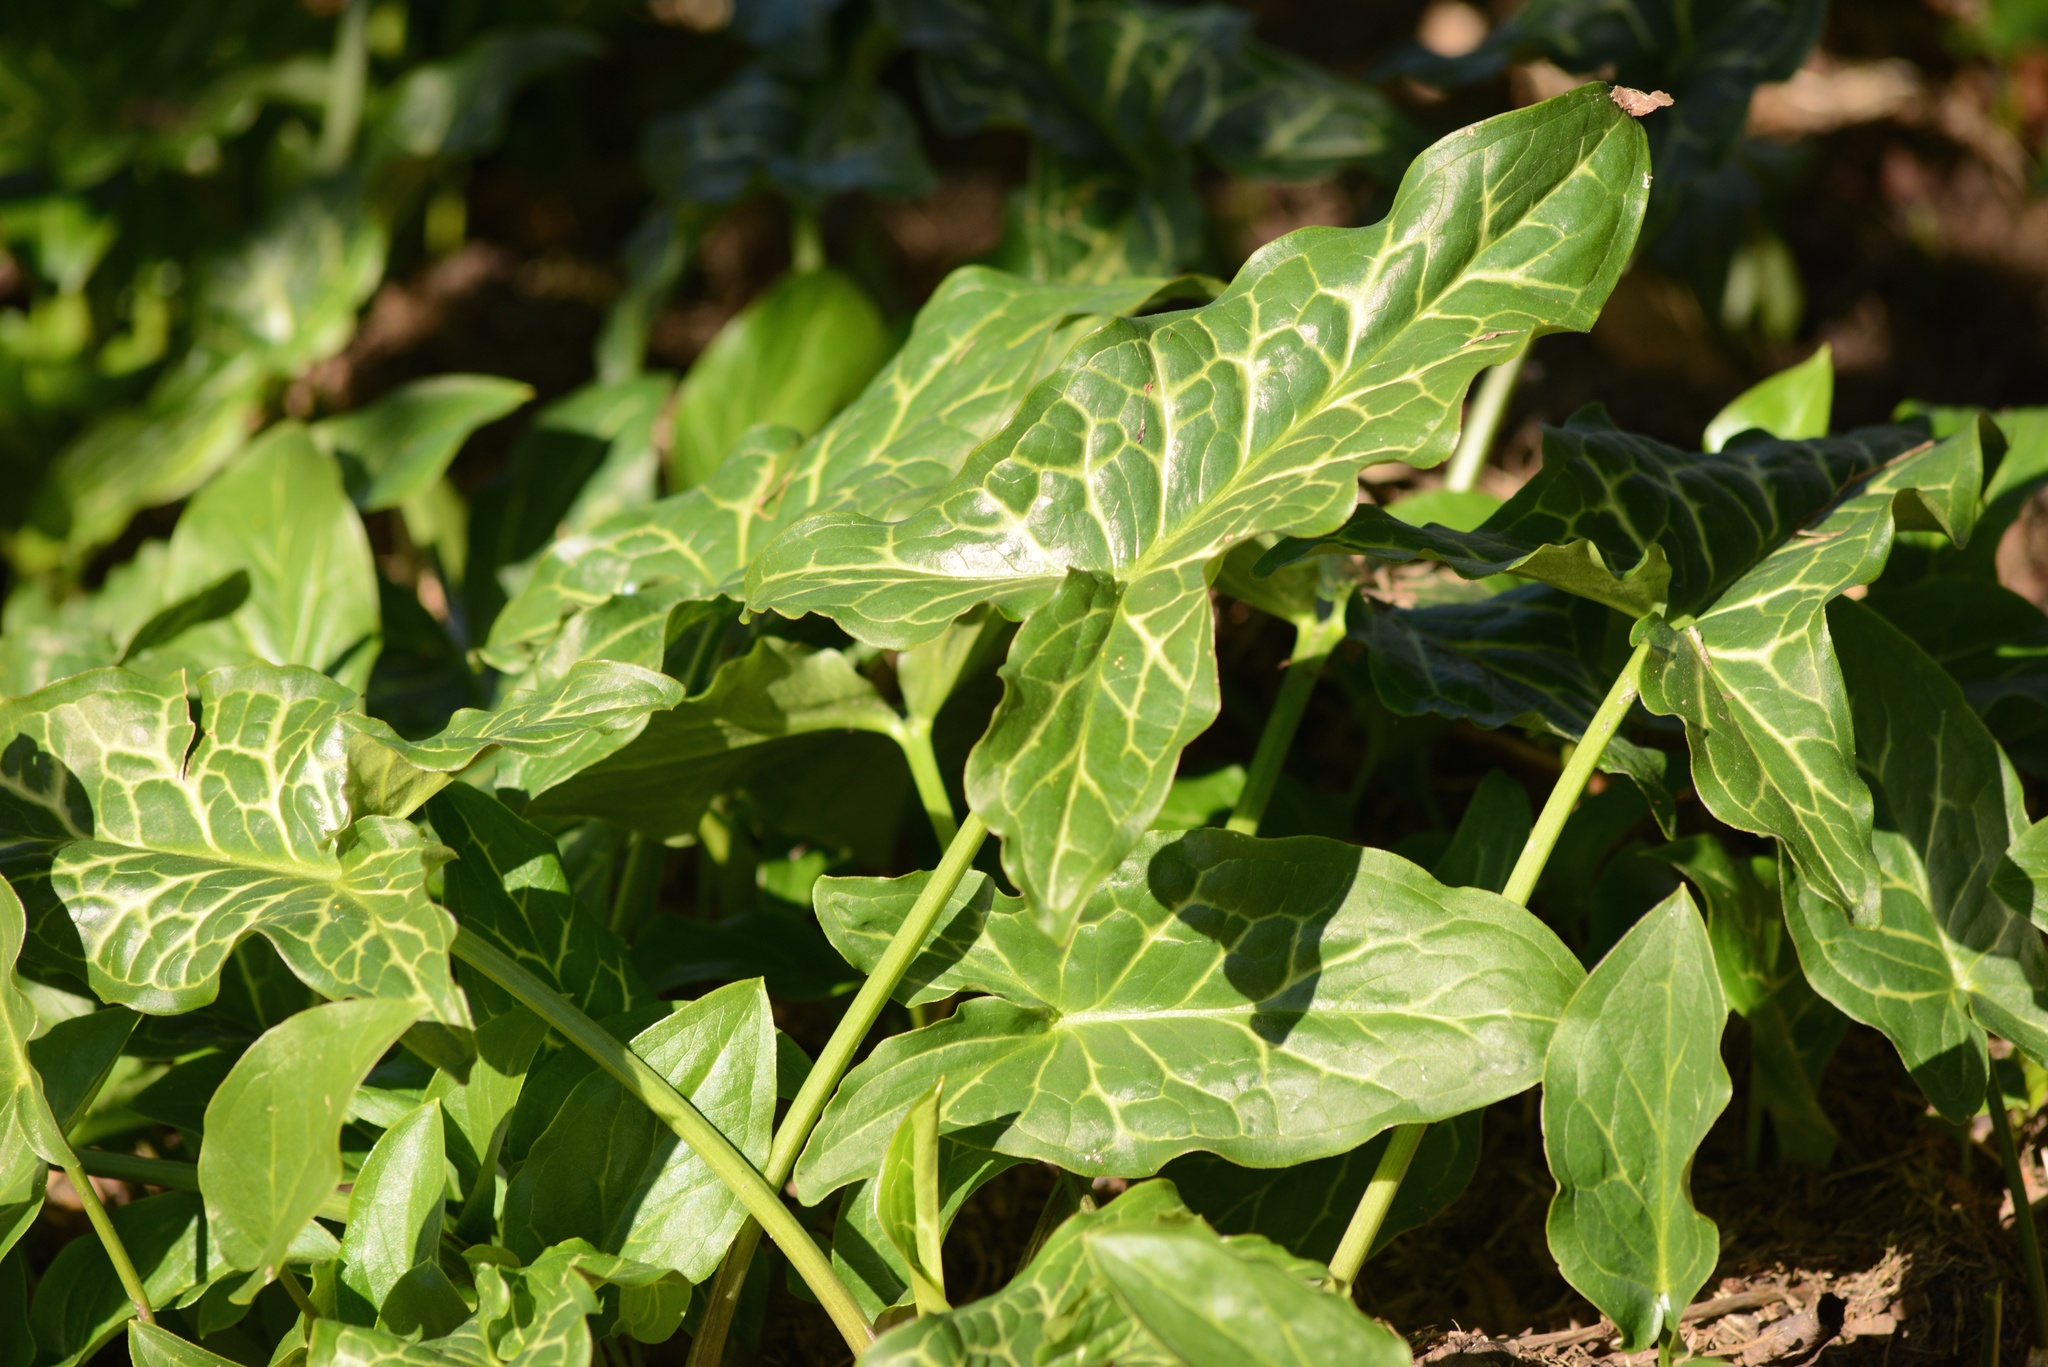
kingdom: Plantae
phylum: Tracheophyta
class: Liliopsida
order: Alismatales
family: Araceae
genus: Arum
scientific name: Arum italicum
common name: Italian lords-and-ladies
